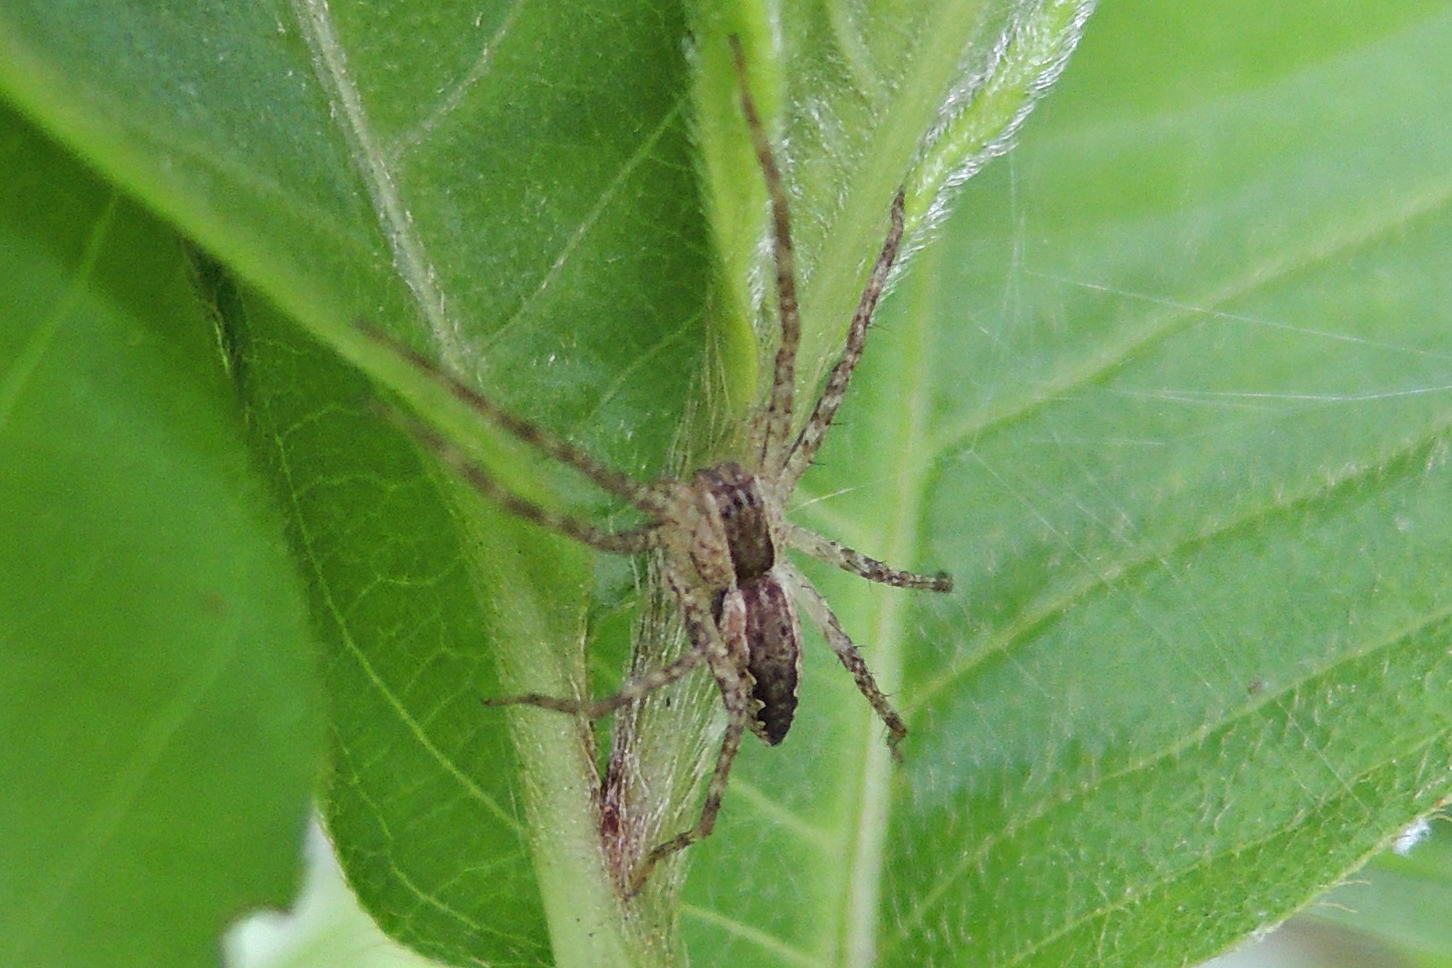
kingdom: Animalia
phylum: Arthropoda
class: Arachnida
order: Araneae
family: Pisauridae
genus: Pisaurina
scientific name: Pisaurina mira
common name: American nursery web spider
